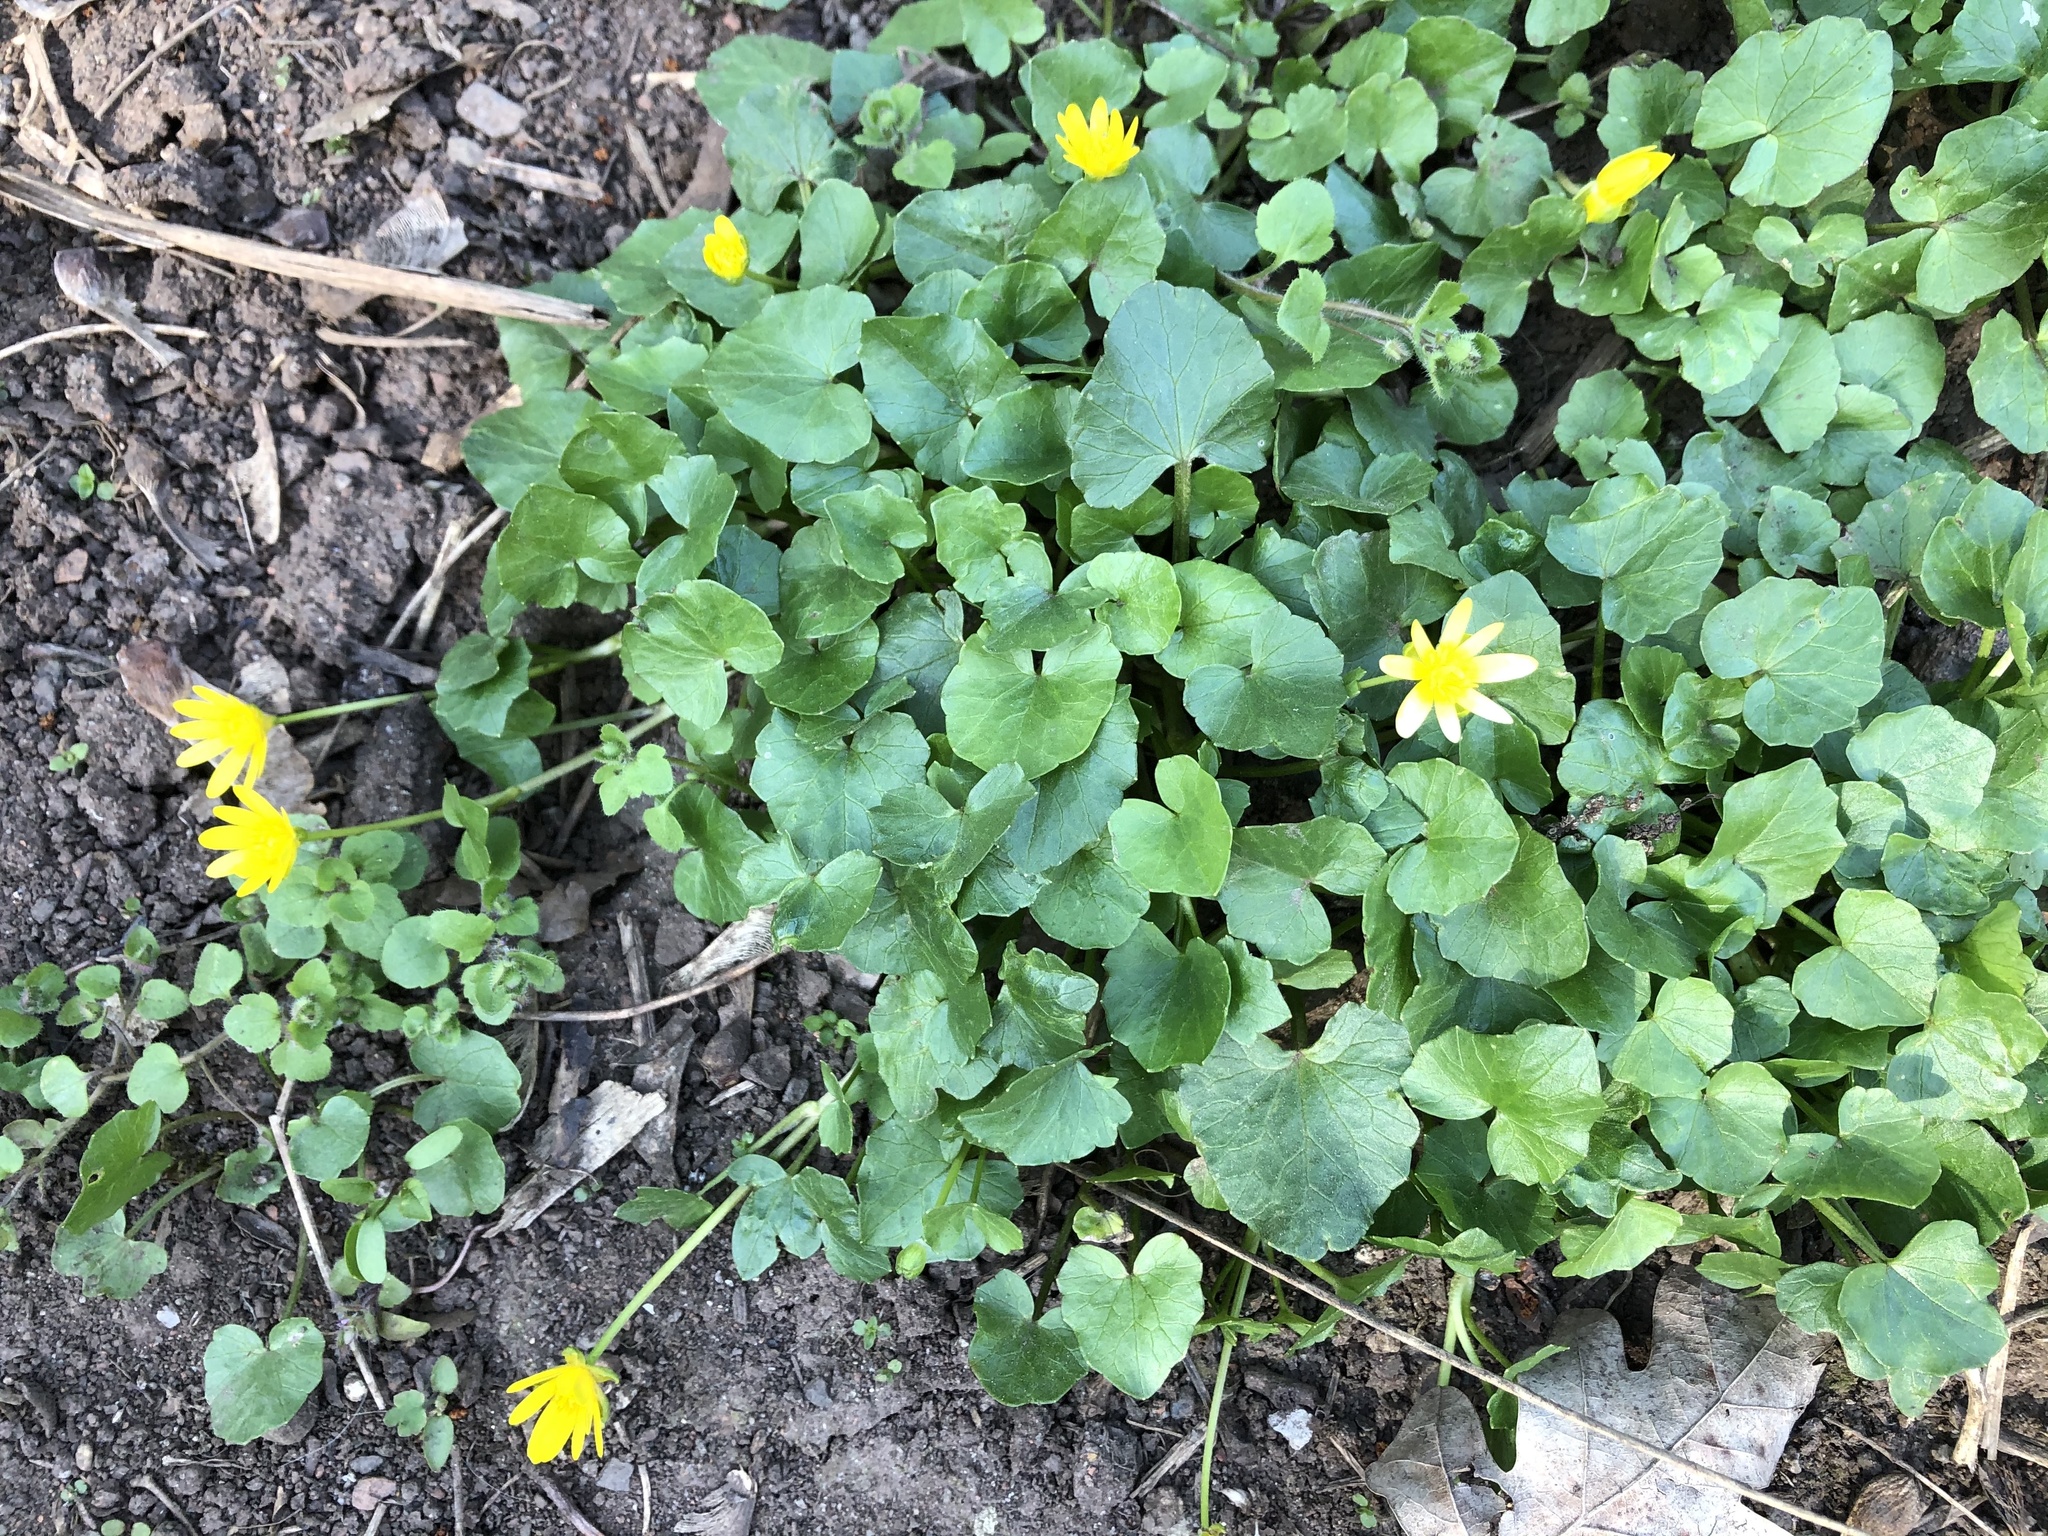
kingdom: Plantae
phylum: Tracheophyta
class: Magnoliopsida
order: Ranunculales
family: Ranunculaceae
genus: Ficaria
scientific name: Ficaria verna
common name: Lesser celandine
